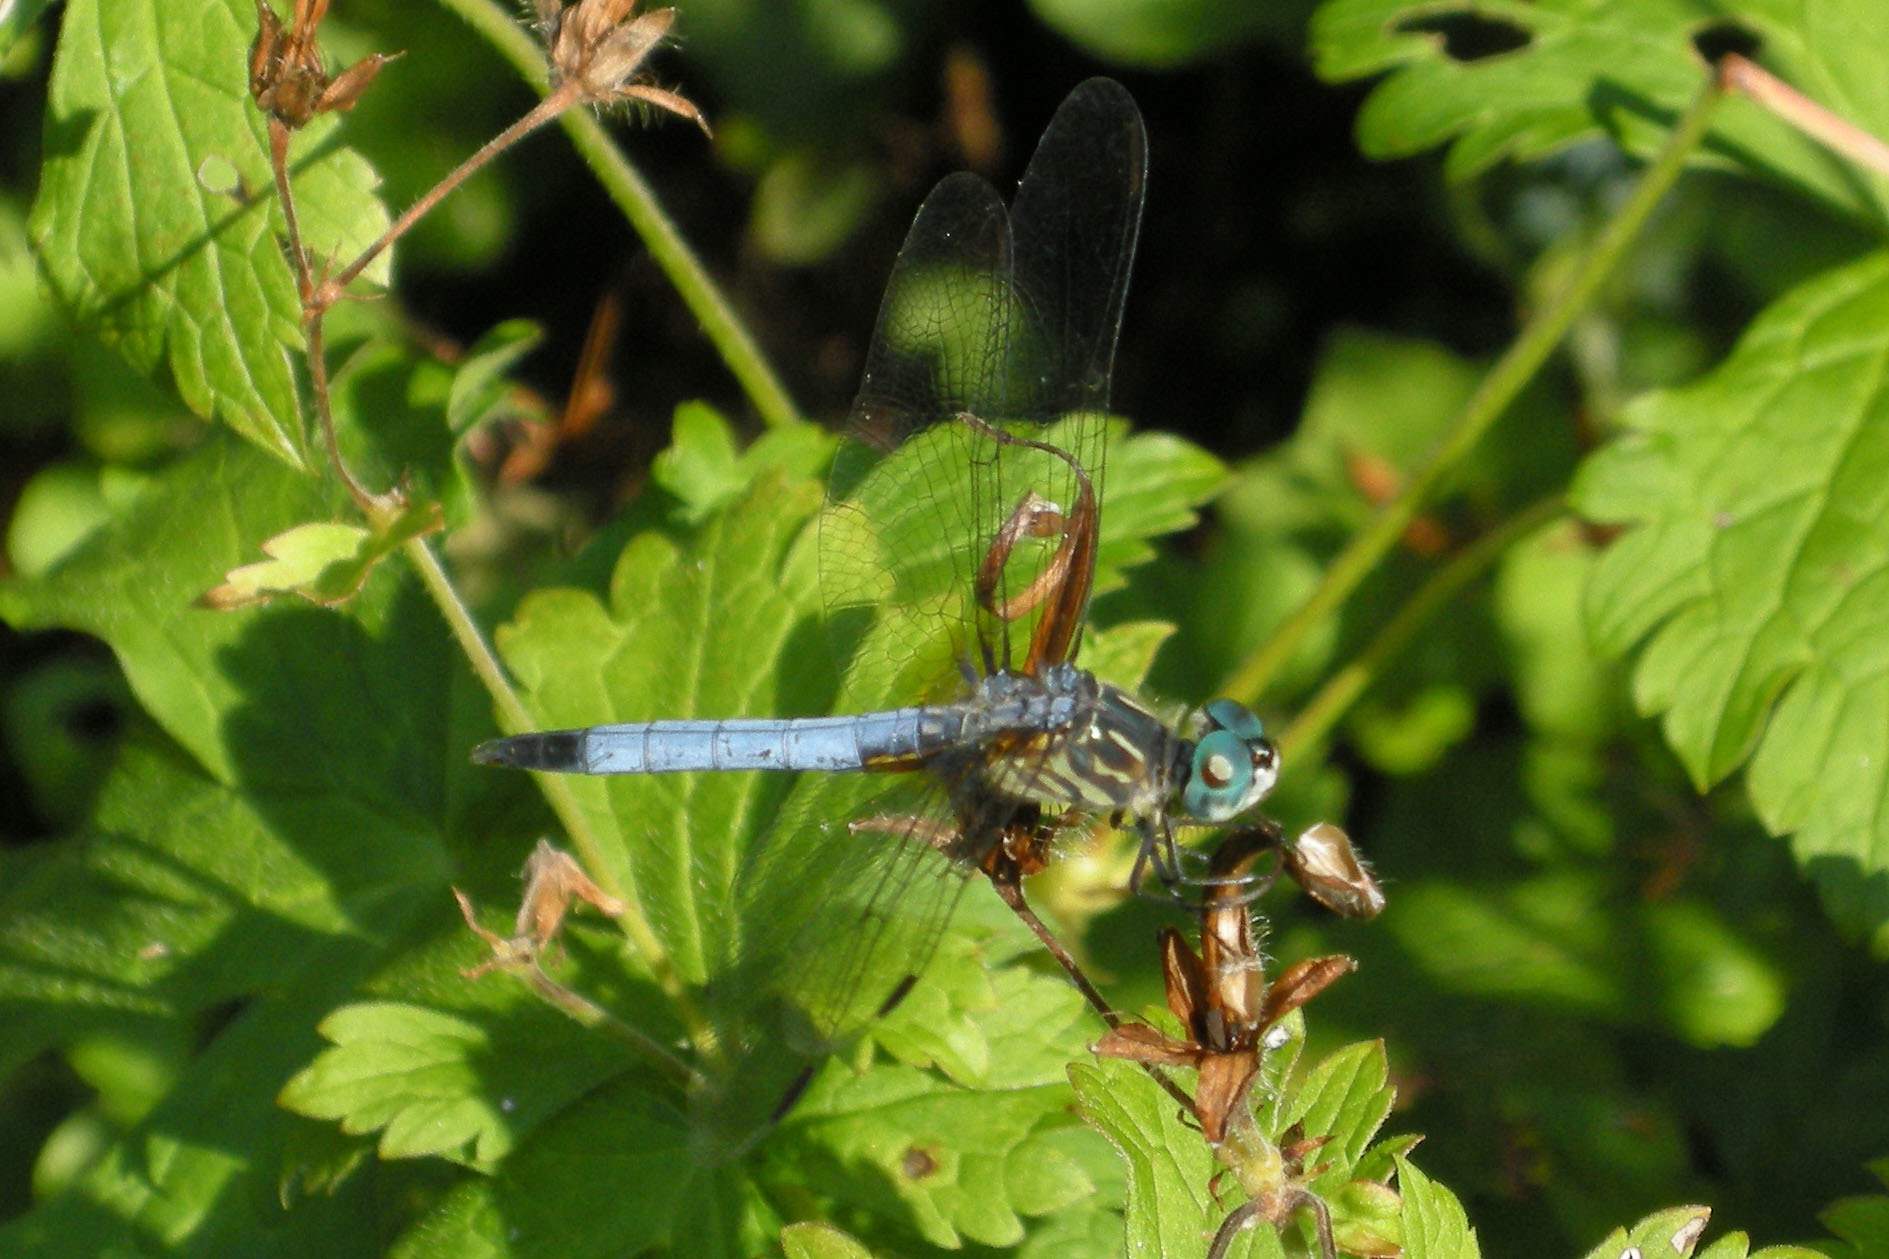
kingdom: Animalia
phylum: Arthropoda
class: Insecta
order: Odonata
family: Libellulidae
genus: Pachydiplax
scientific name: Pachydiplax longipennis
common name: Blue dasher
